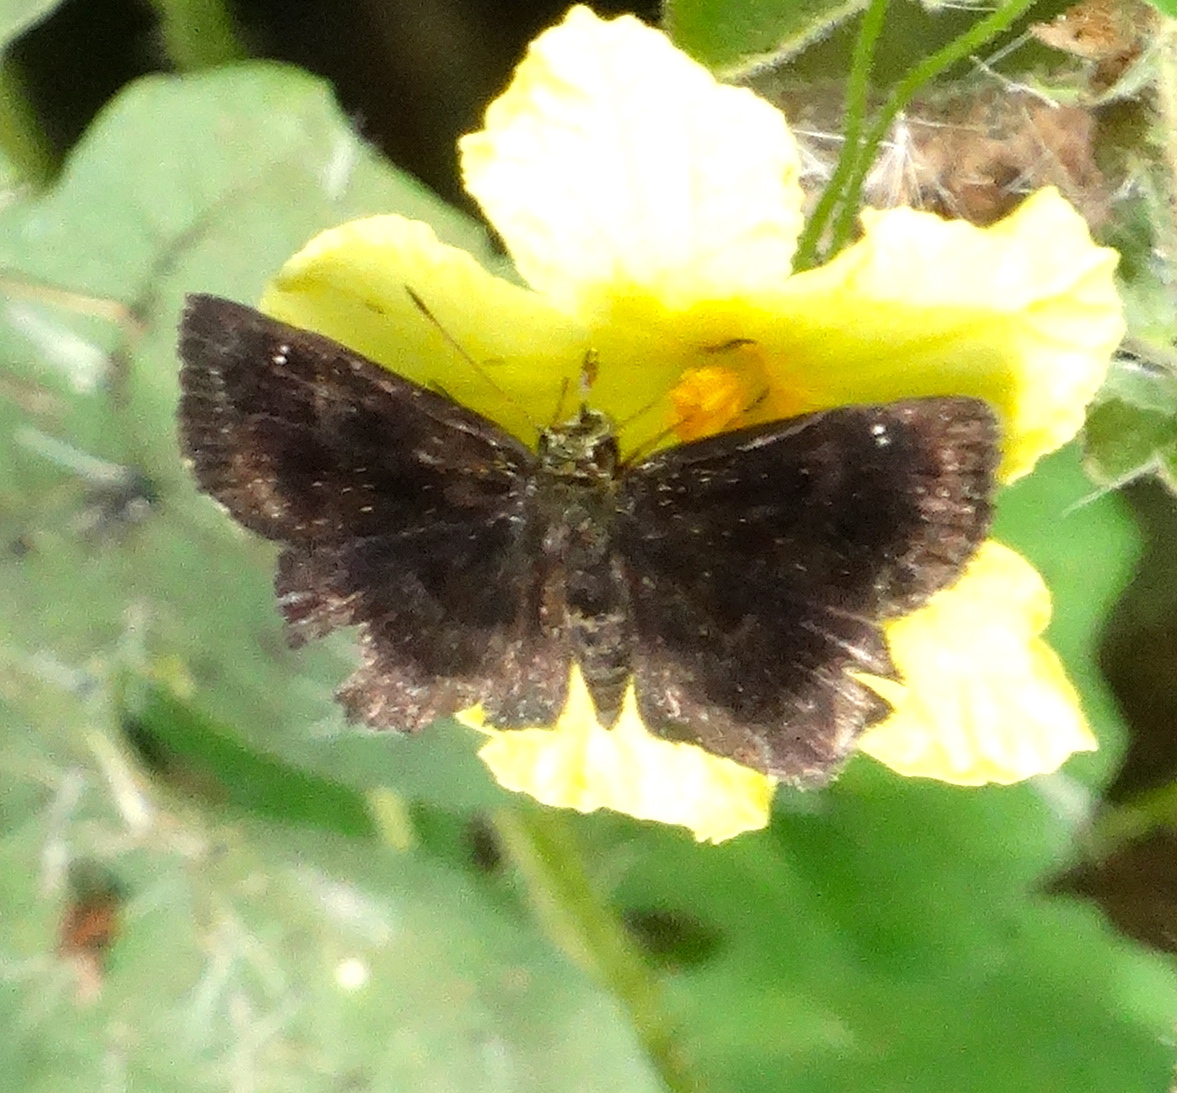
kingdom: Animalia
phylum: Arthropoda
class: Insecta
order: Lepidoptera
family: Hesperiidae
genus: Staphylus
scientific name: Staphylus mazans
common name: Mazans scallopwing
